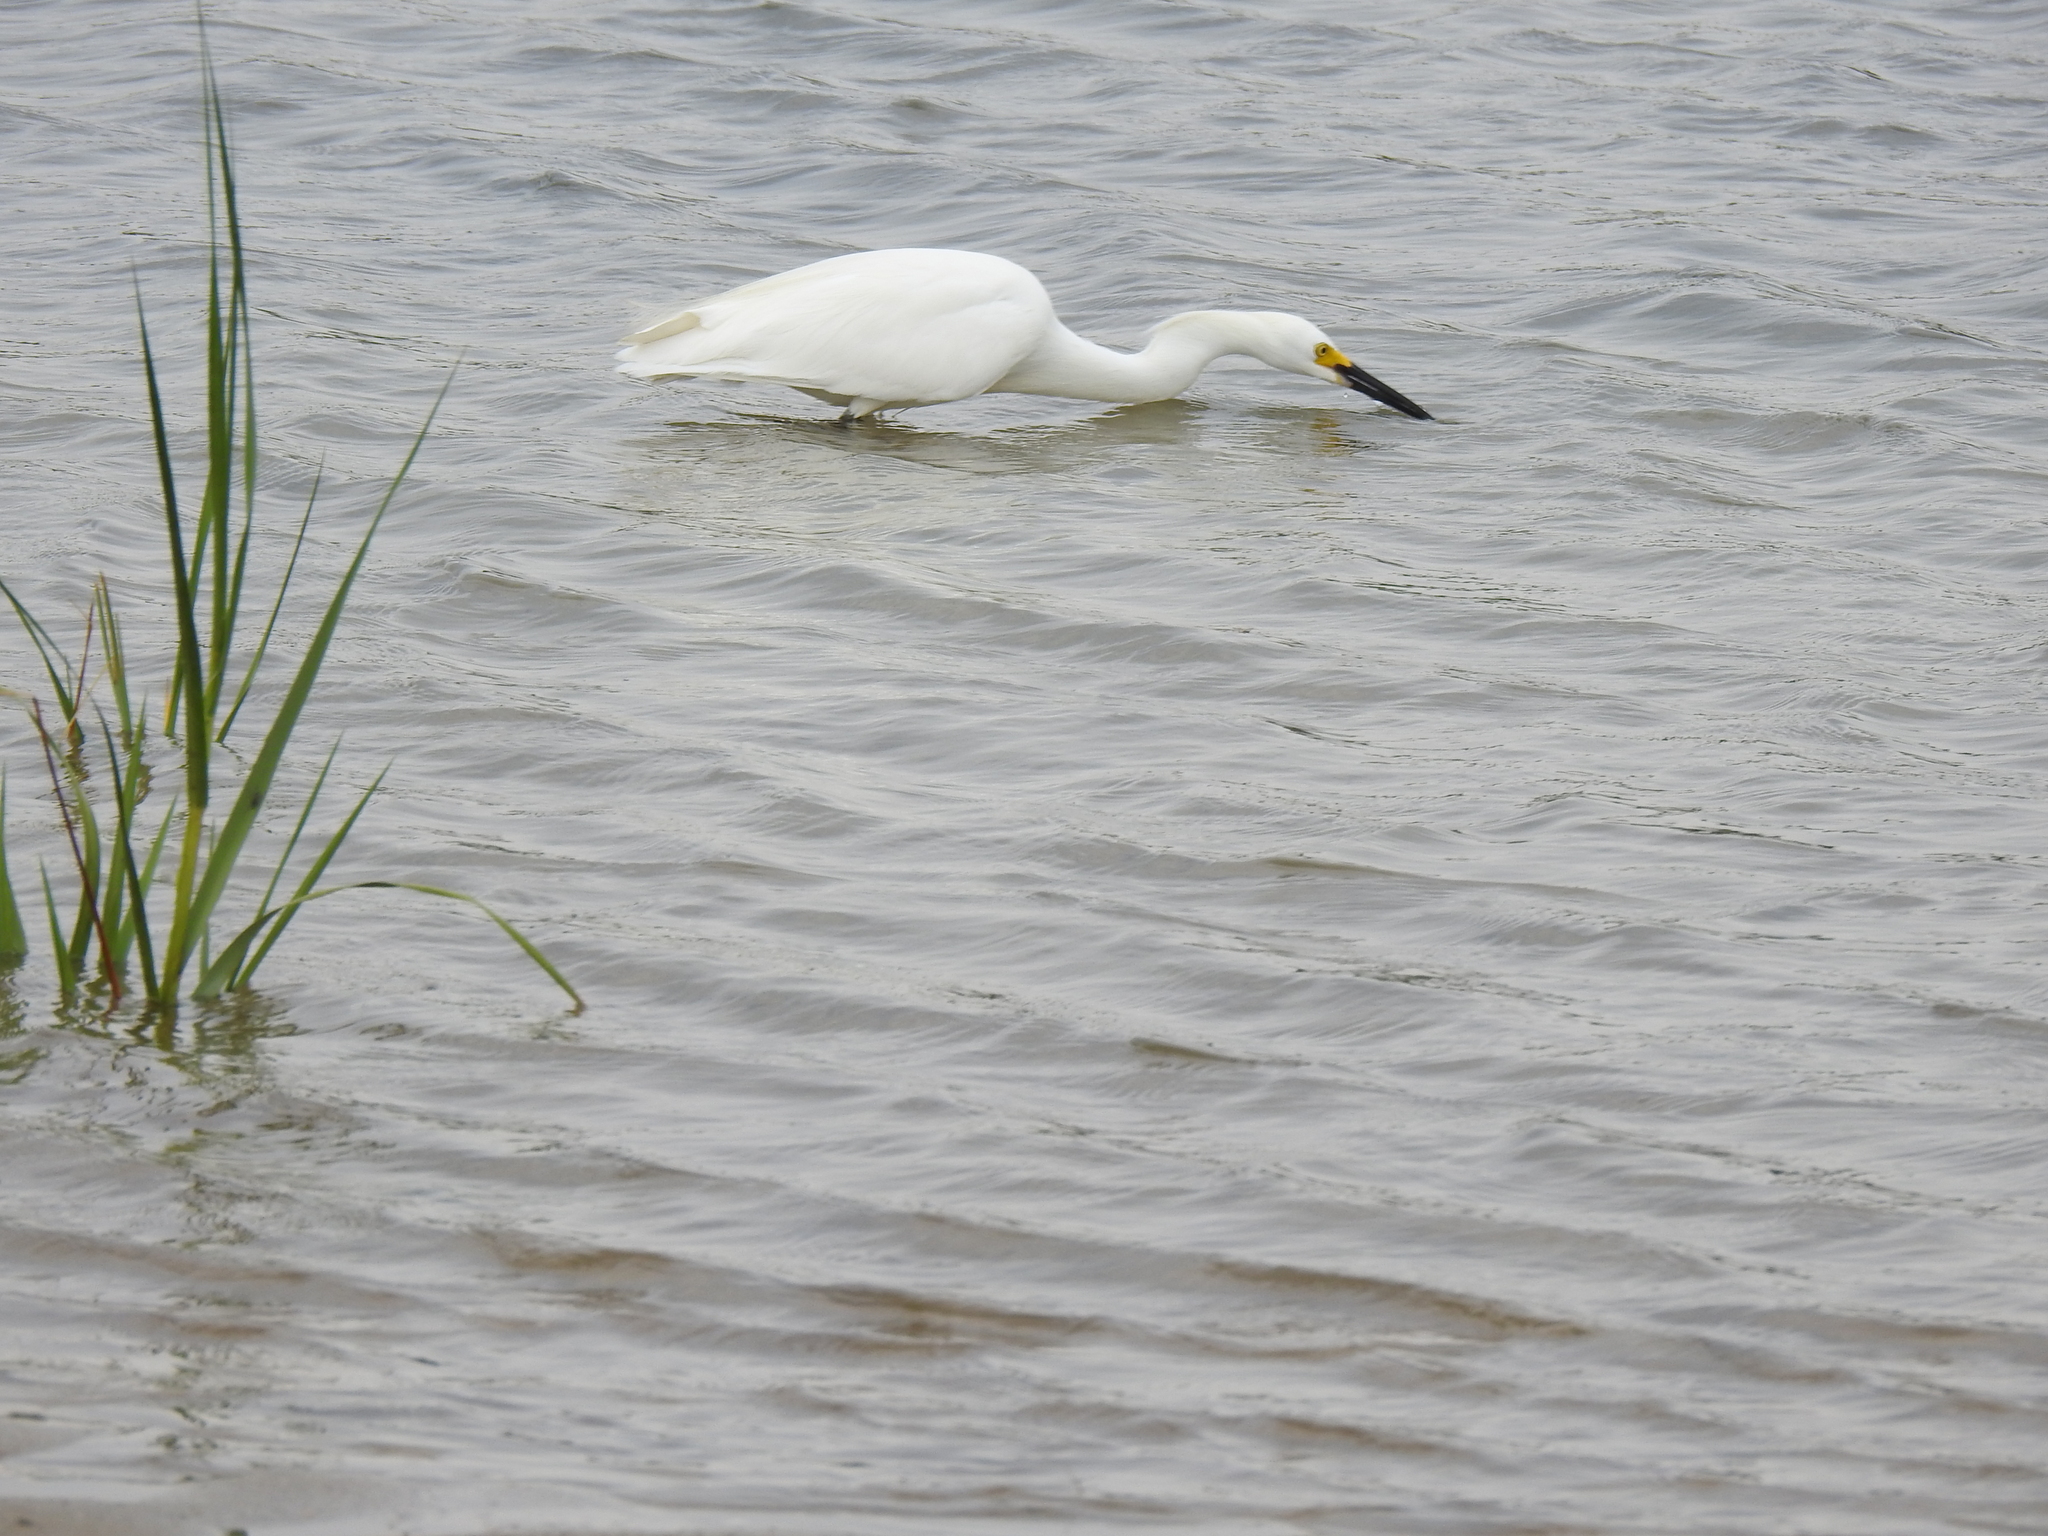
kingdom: Animalia
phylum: Chordata
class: Aves
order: Pelecaniformes
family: Ardeidae
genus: Egretta
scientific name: Egretta thula
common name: Snowy egret
